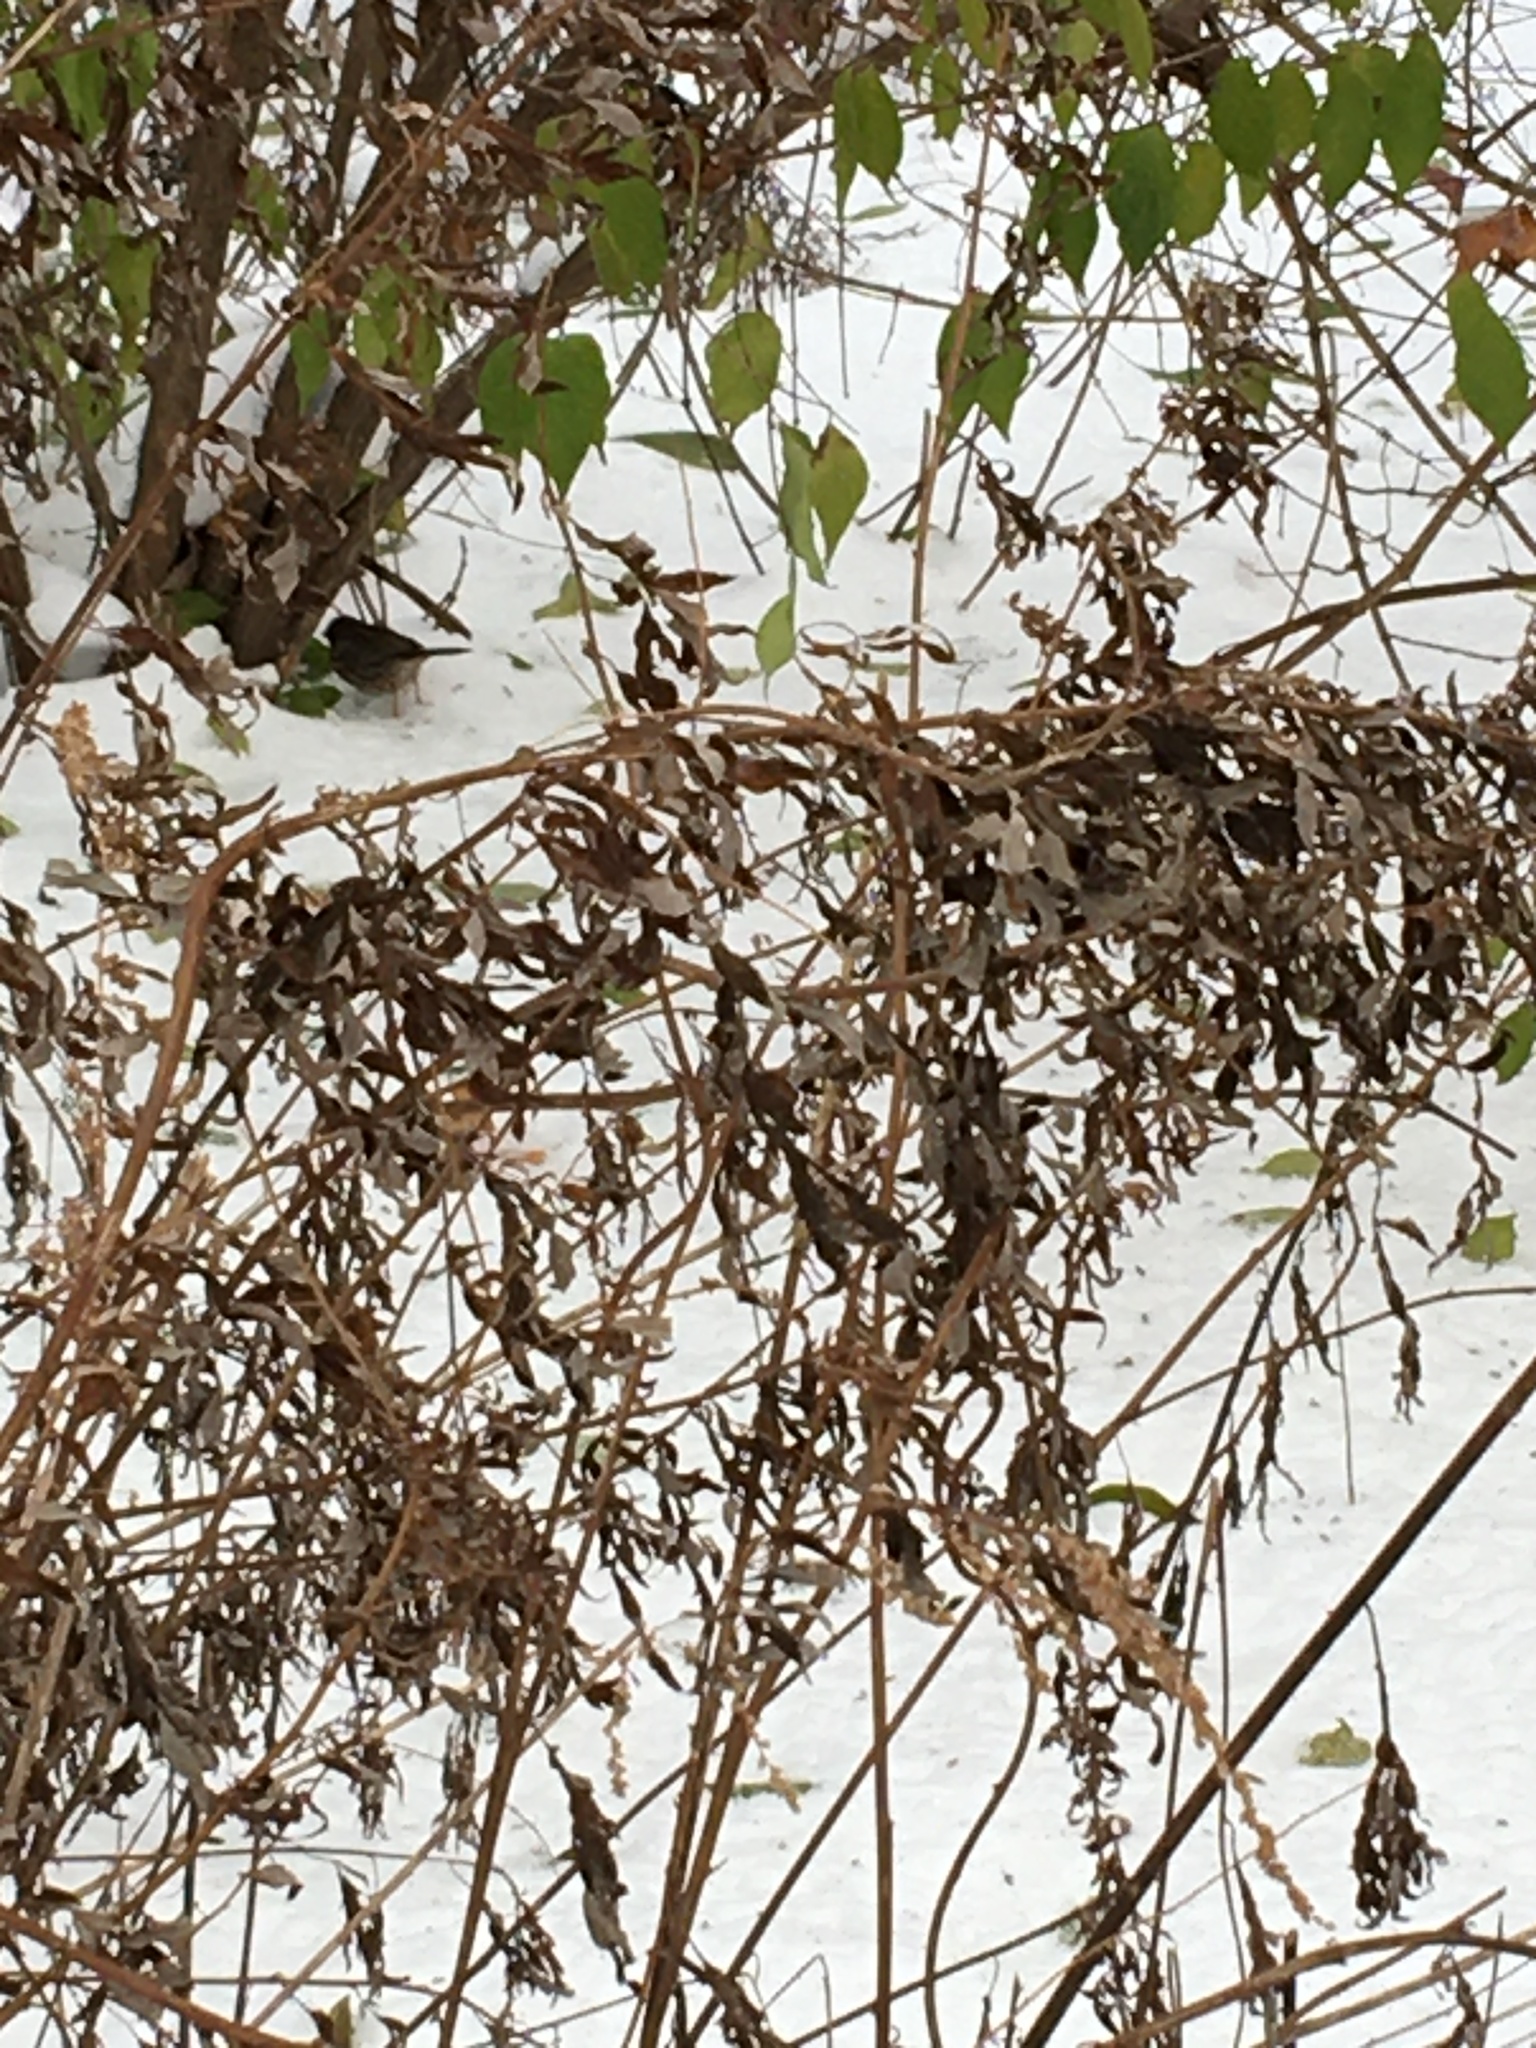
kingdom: Plantae
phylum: Tracheophyta
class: Magnoliopsida
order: Asterales
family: Asteraceae
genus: Artemisia
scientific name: Artemisia vulgaris
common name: Mugwort
